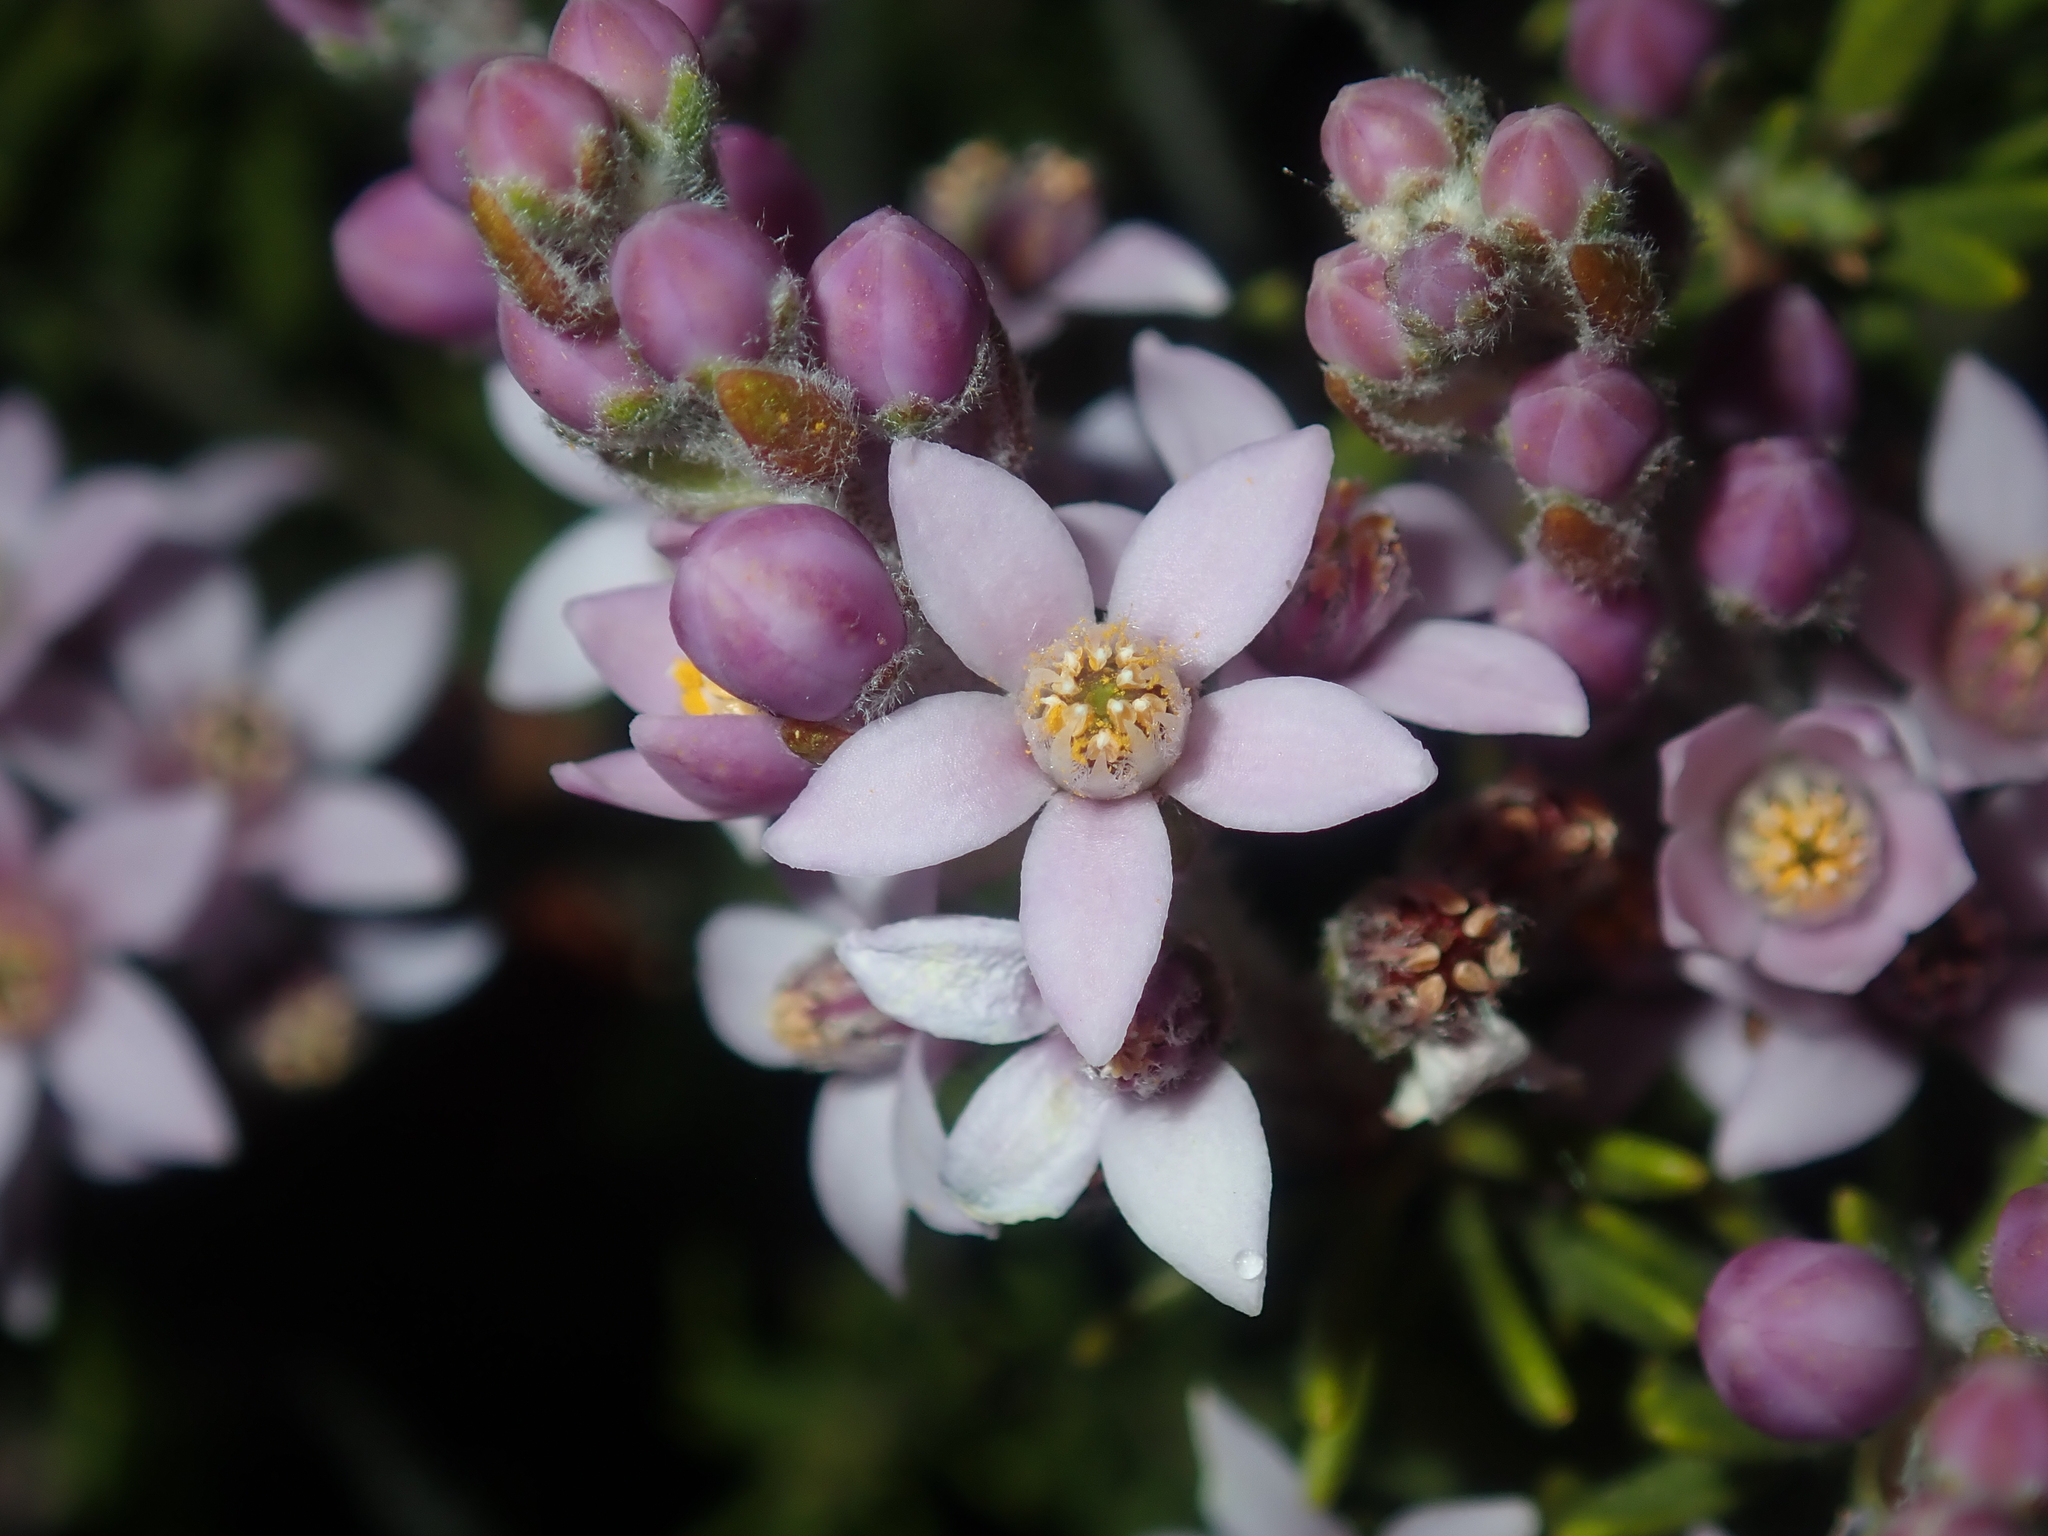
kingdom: Plantae
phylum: Tracheophyta
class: Magnoliopsida
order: Sapindales
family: Rutaceae
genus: Philotheca
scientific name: Philotheca spicata
